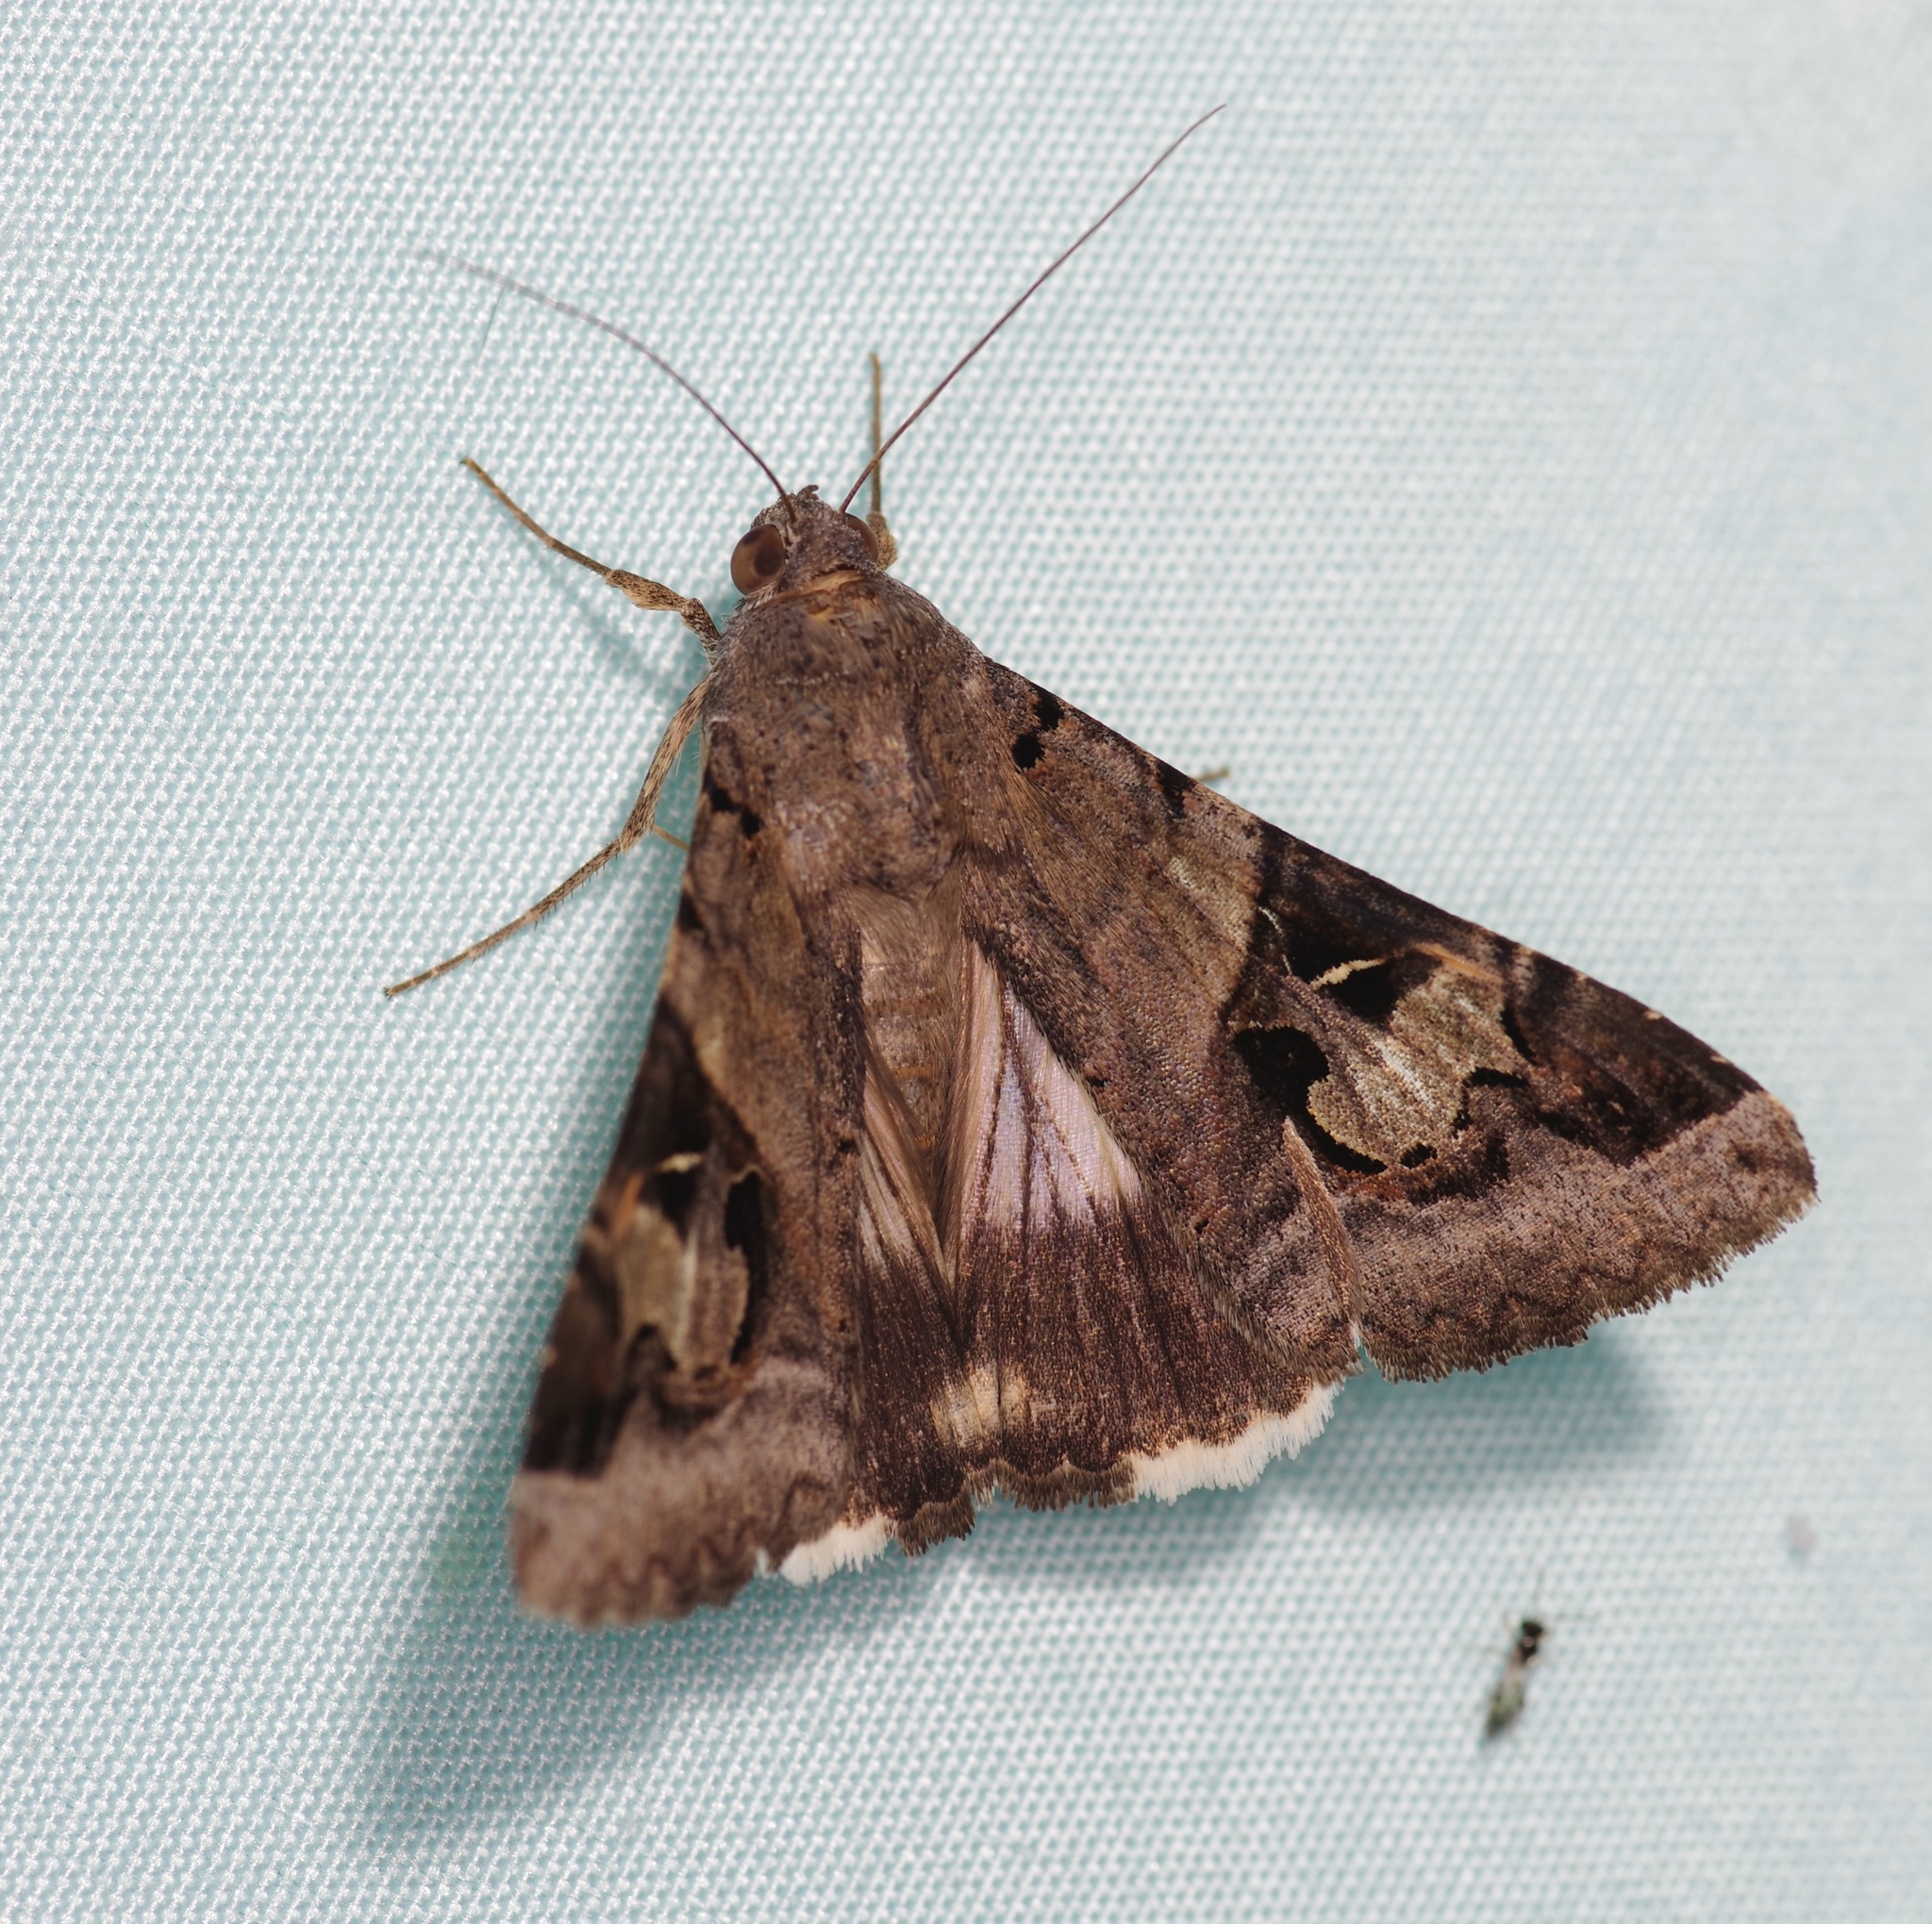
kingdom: Animalia
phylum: Arthropoda
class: Insecta
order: Lepidoptera
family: Erebidae
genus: Melipotis
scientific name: Melipotis indomita
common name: Moth
